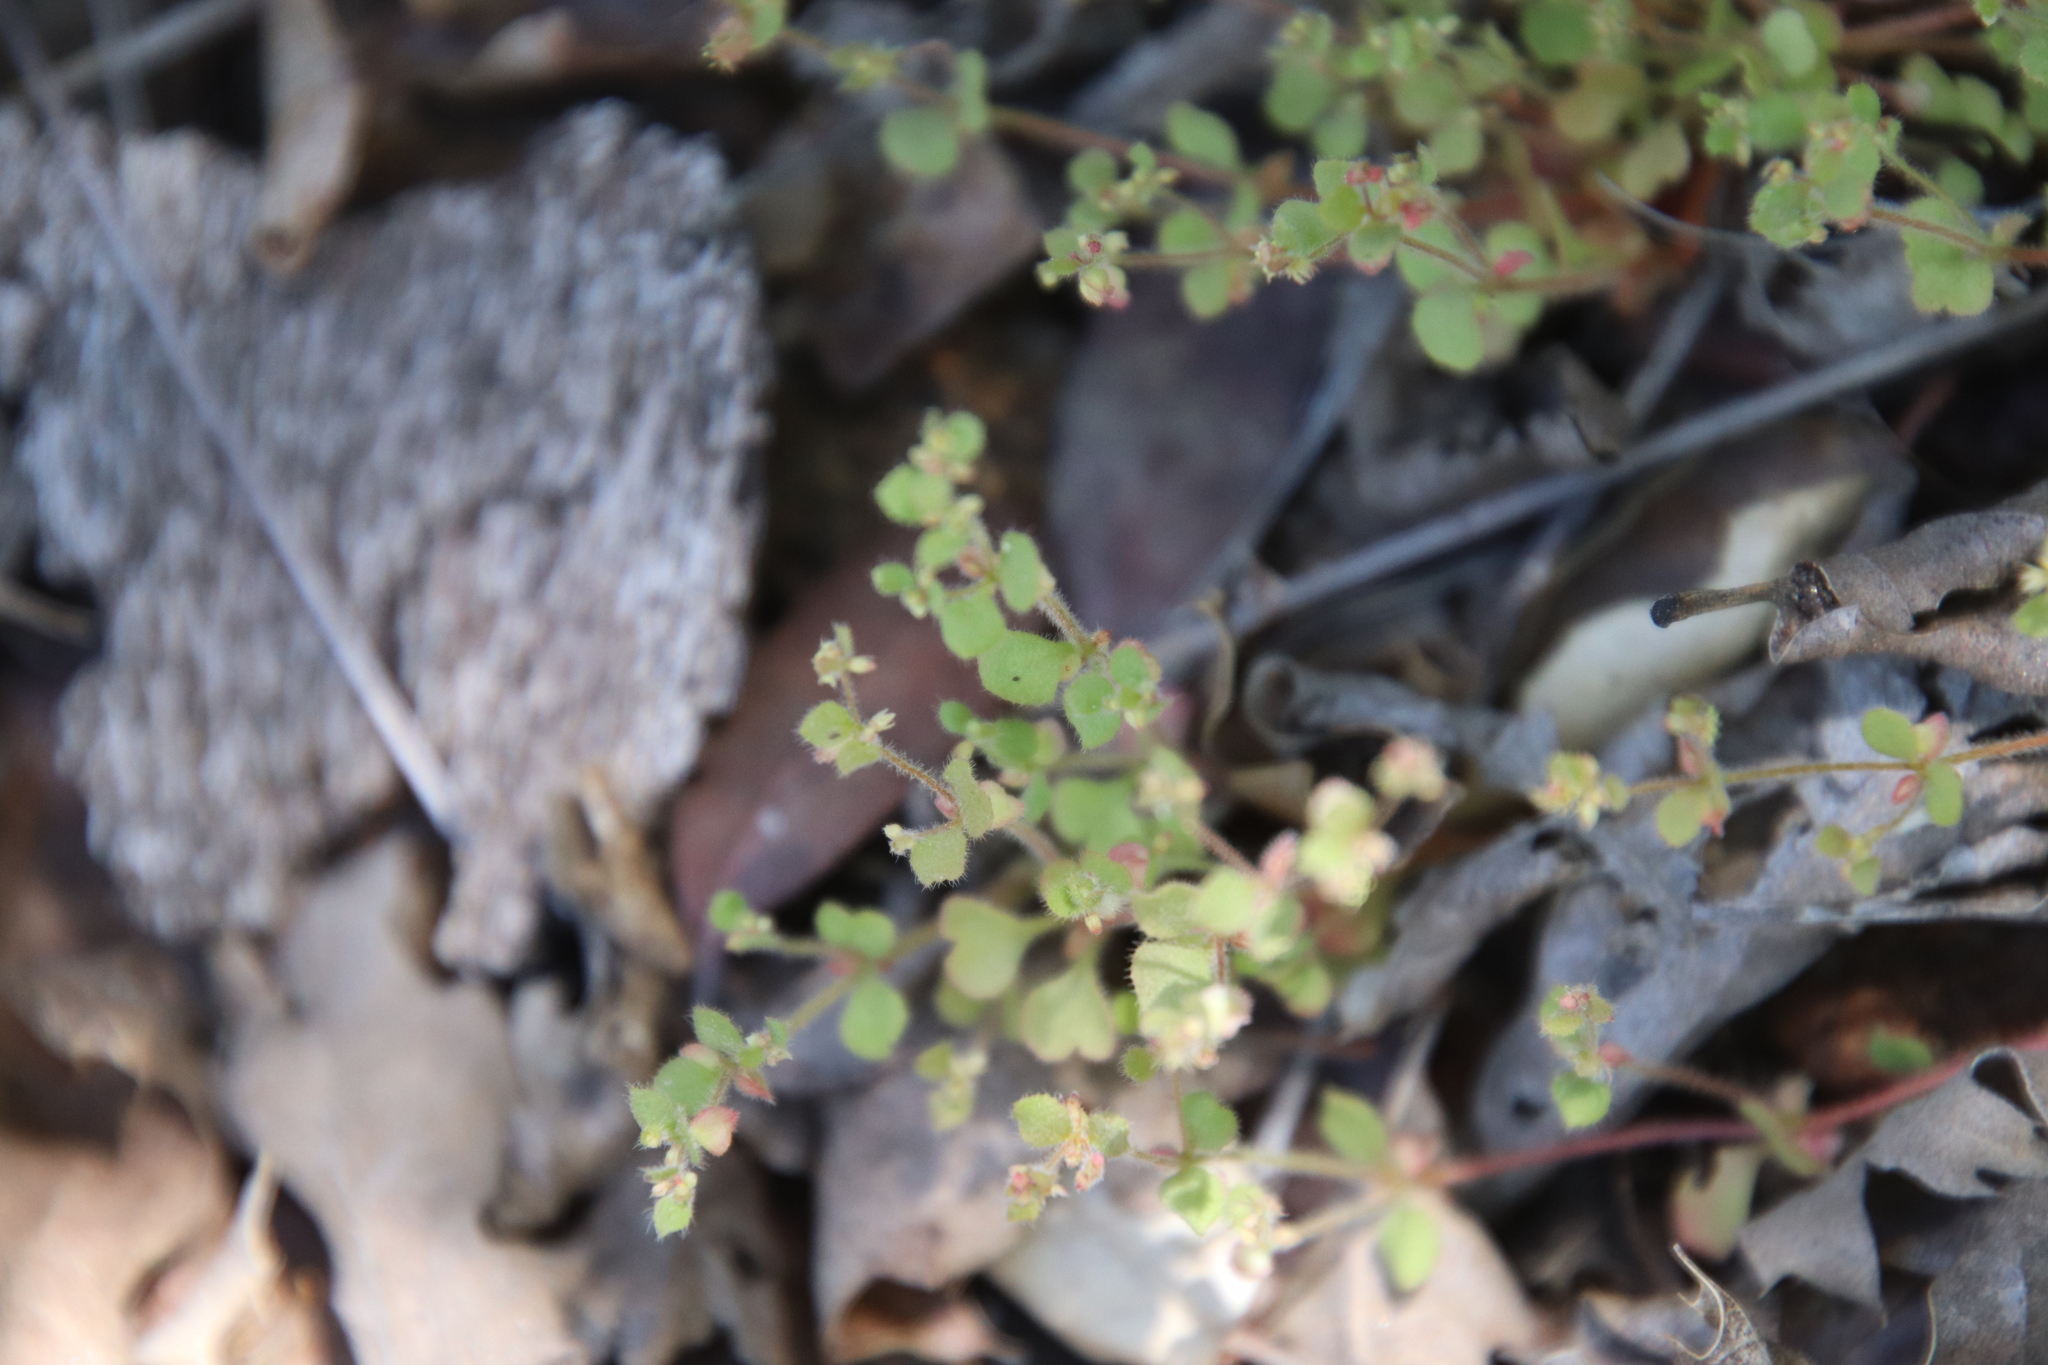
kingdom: Plantae
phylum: Tracheophyta
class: Magnoliopsida
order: Caryophyllales
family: Polygonaceae
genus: Pterostegia
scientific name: Pterostegia drymarioides
